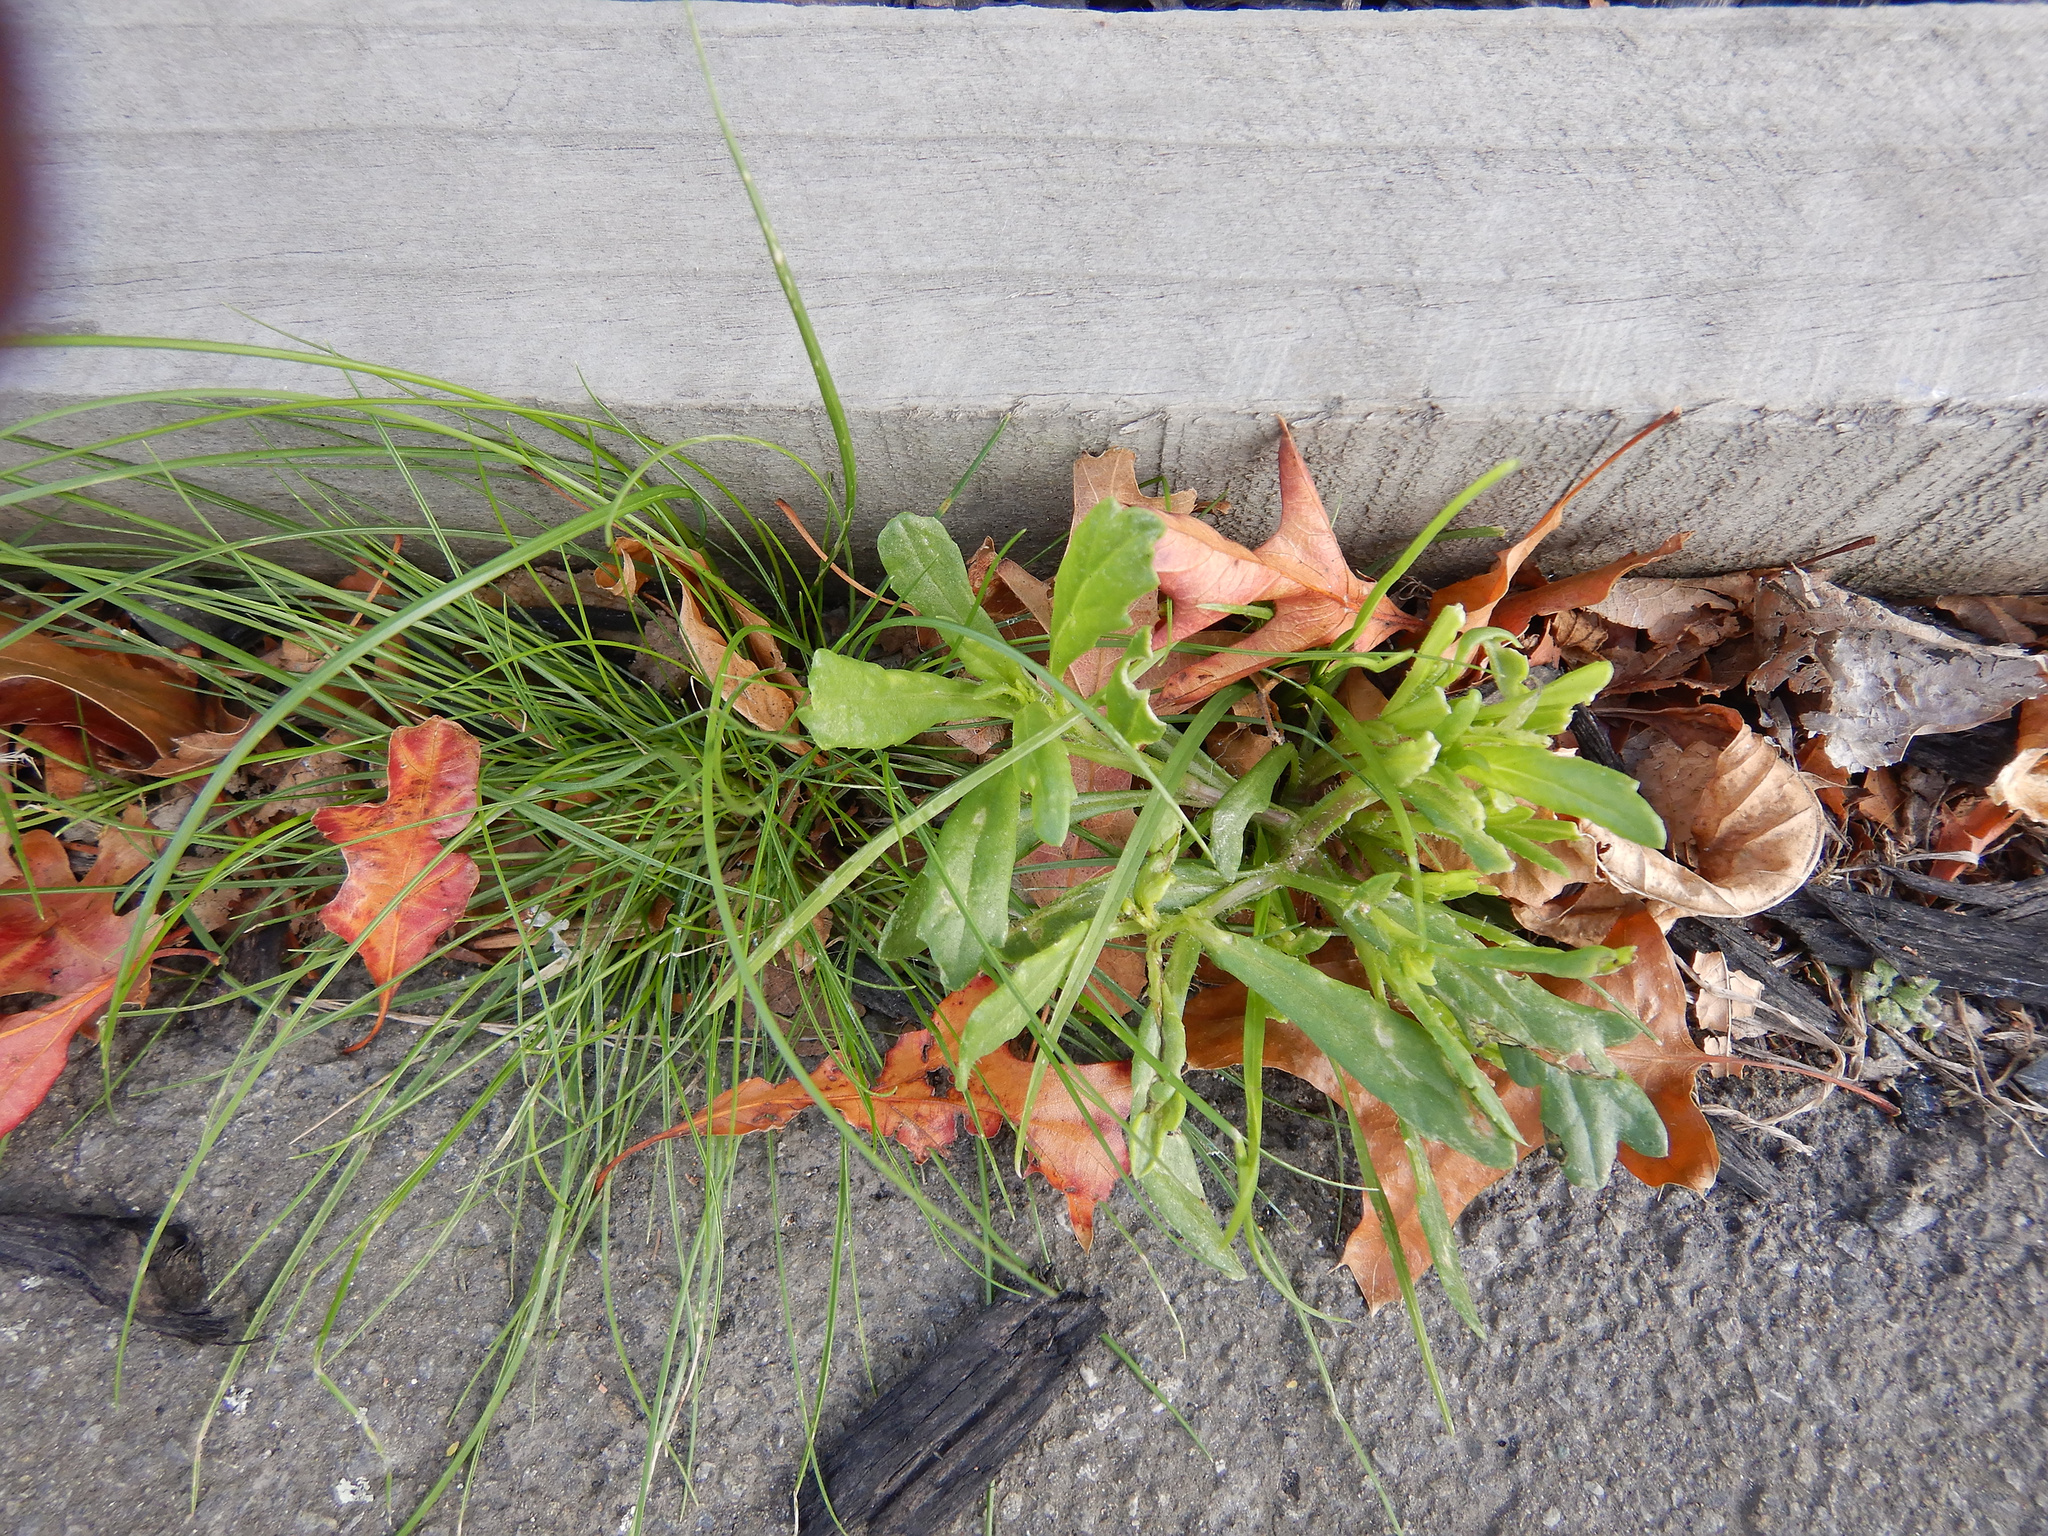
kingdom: Plantae
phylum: Tracheophyta
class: Magnoliopsida
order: Asterales
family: Asteraceae
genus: Senecio
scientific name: Senecio skirrhodon
